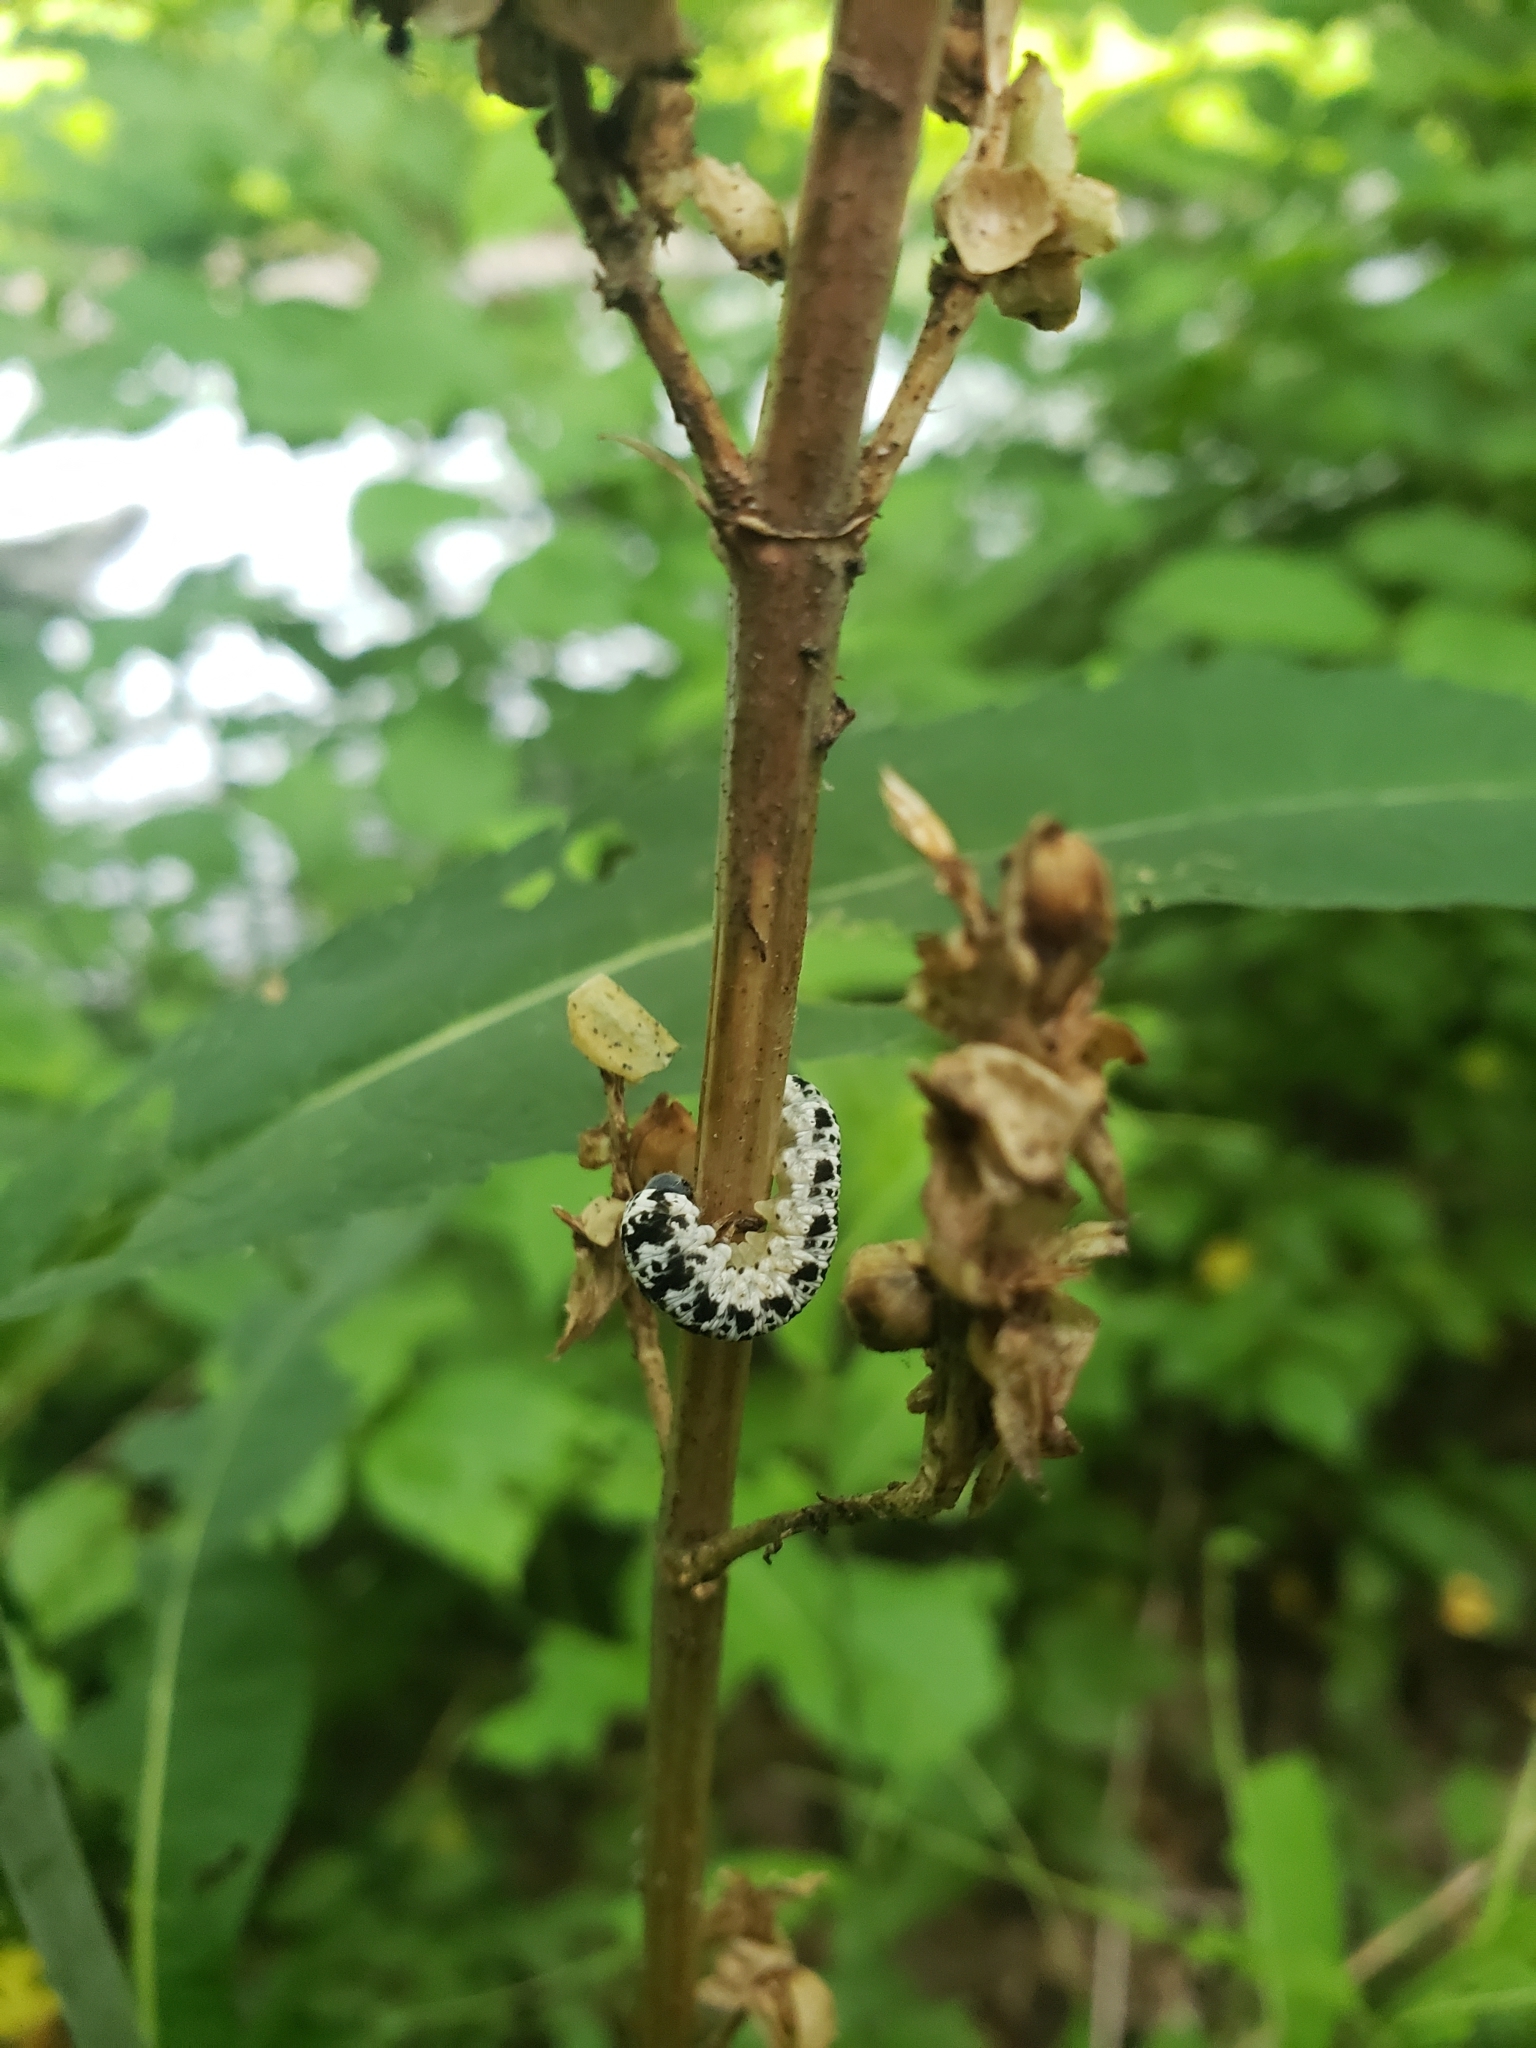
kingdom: Animalia
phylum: Arthropoda
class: Insecta
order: Hymenoptera
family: Tenthredinidae
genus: Tenthredo
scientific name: Tenthredo
